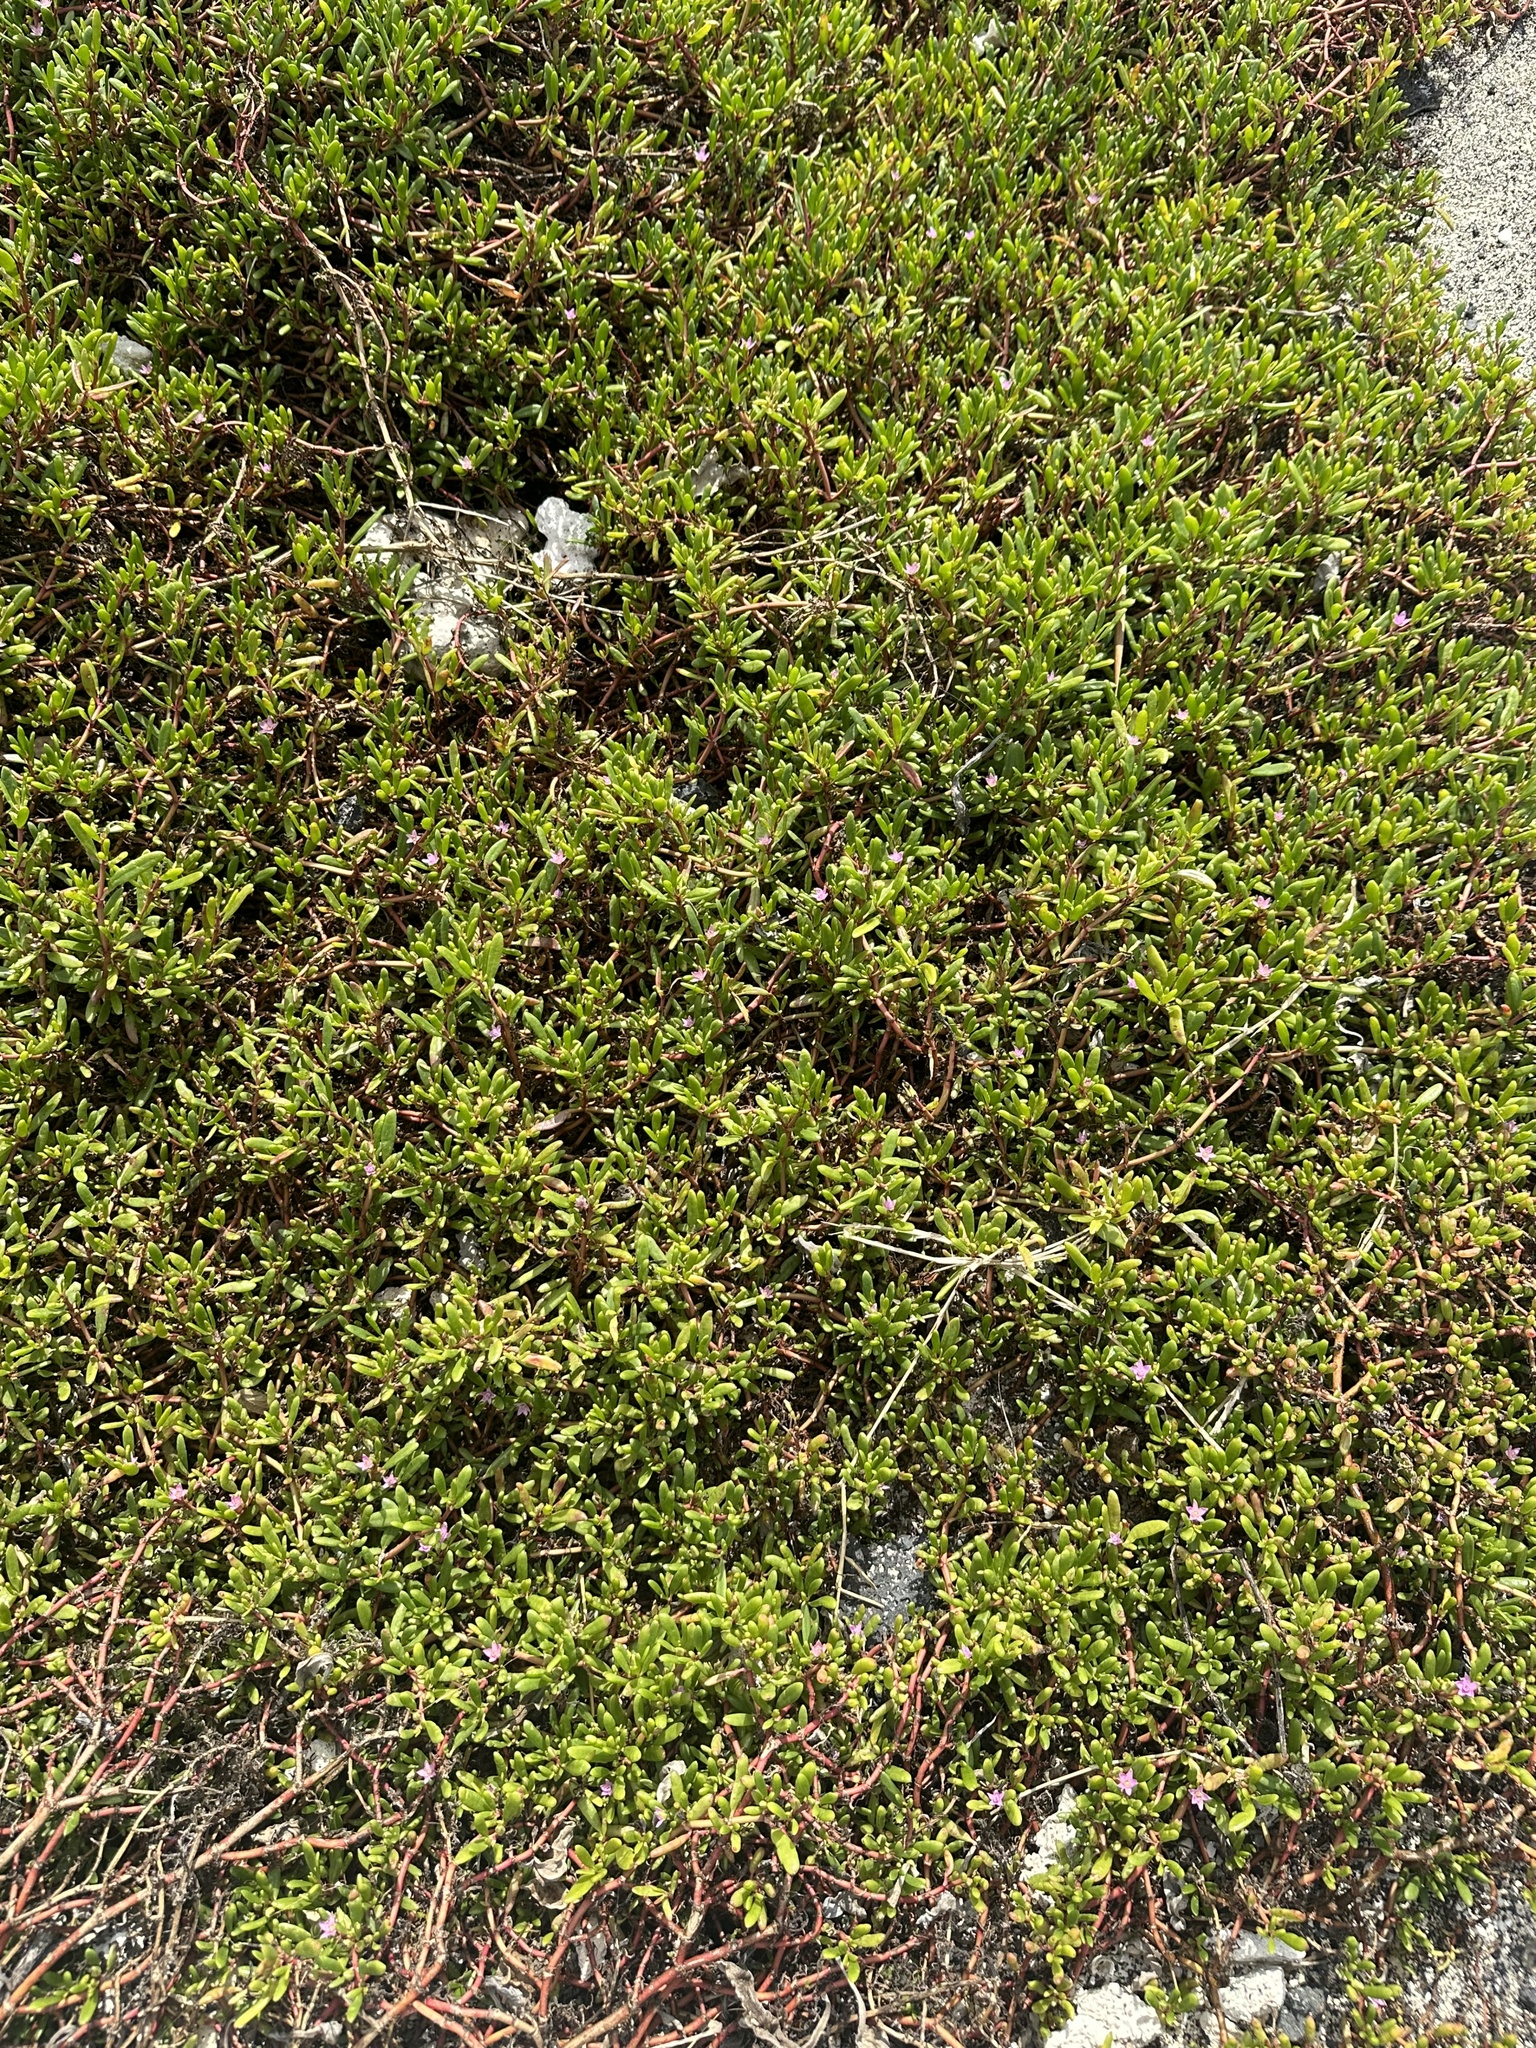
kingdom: Plantae
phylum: Tracheophyta
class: Magnoliopsida
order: Caryophyllales
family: Aizoaceae
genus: Sesuvium
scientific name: Sesuvium portulacastrum
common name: Sea-purslane
